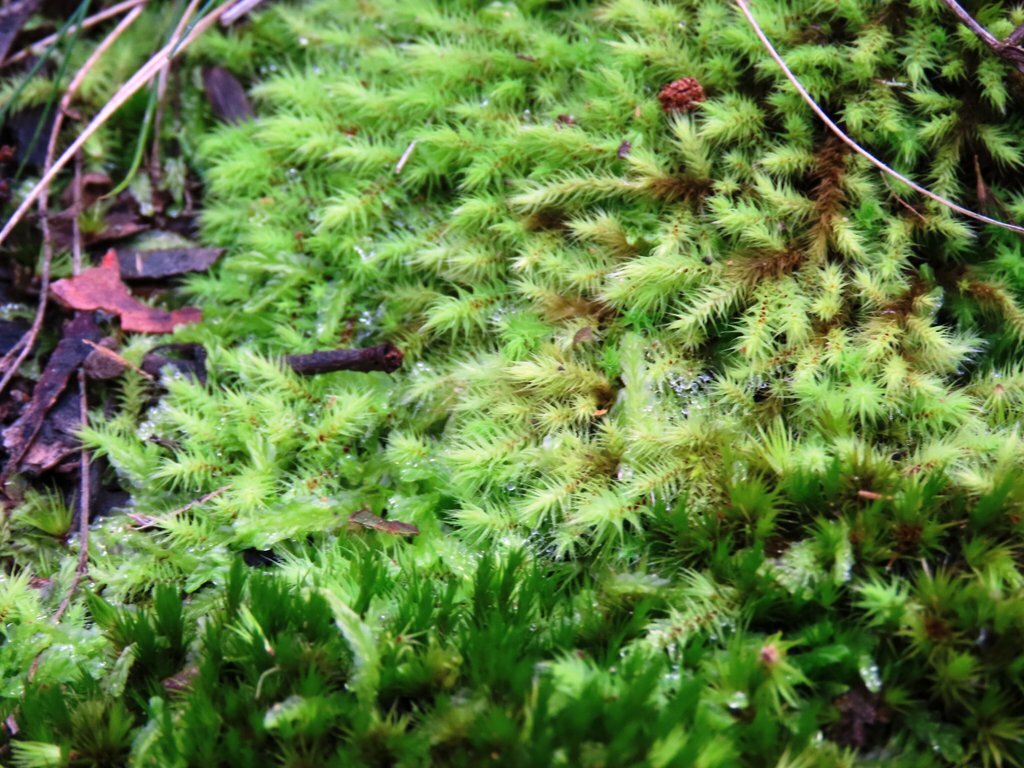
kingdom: Plantae
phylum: Bryophyta
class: Bryopsida
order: Bartramiales
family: Bartramiaceae
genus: Breutelia
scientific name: Breutelia affinis
